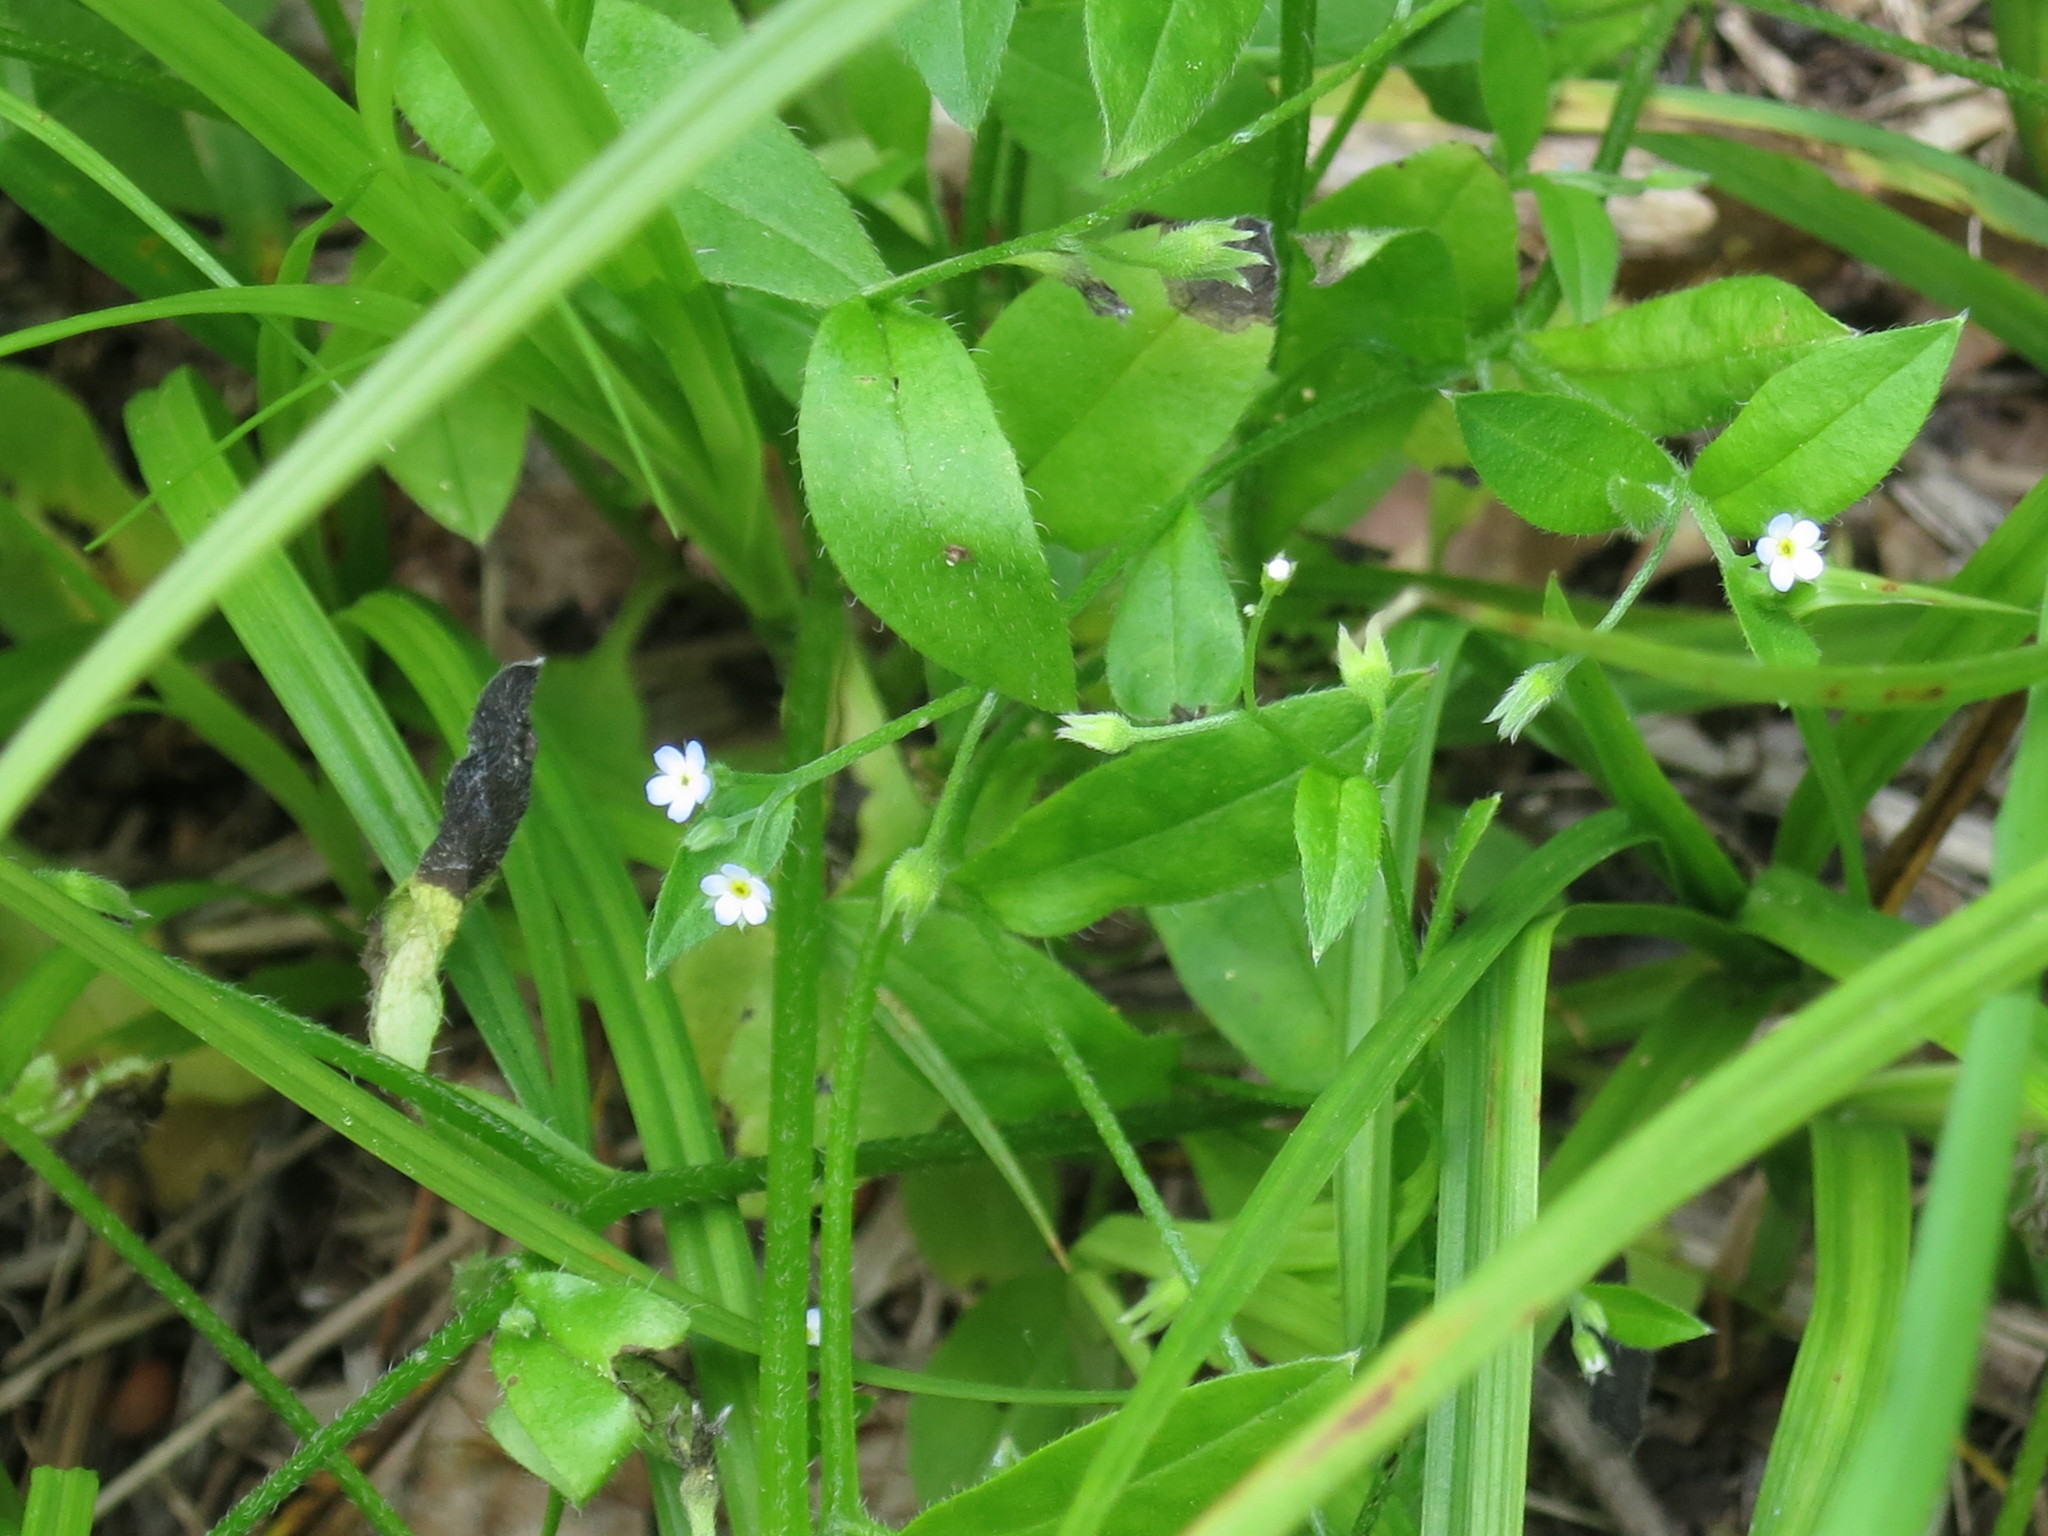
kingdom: Plantae
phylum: Tracheophyta
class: Magnoliopsida
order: Boraginales
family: Boraginaceae
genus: Myosotis
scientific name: Myosotis sparsiflora
